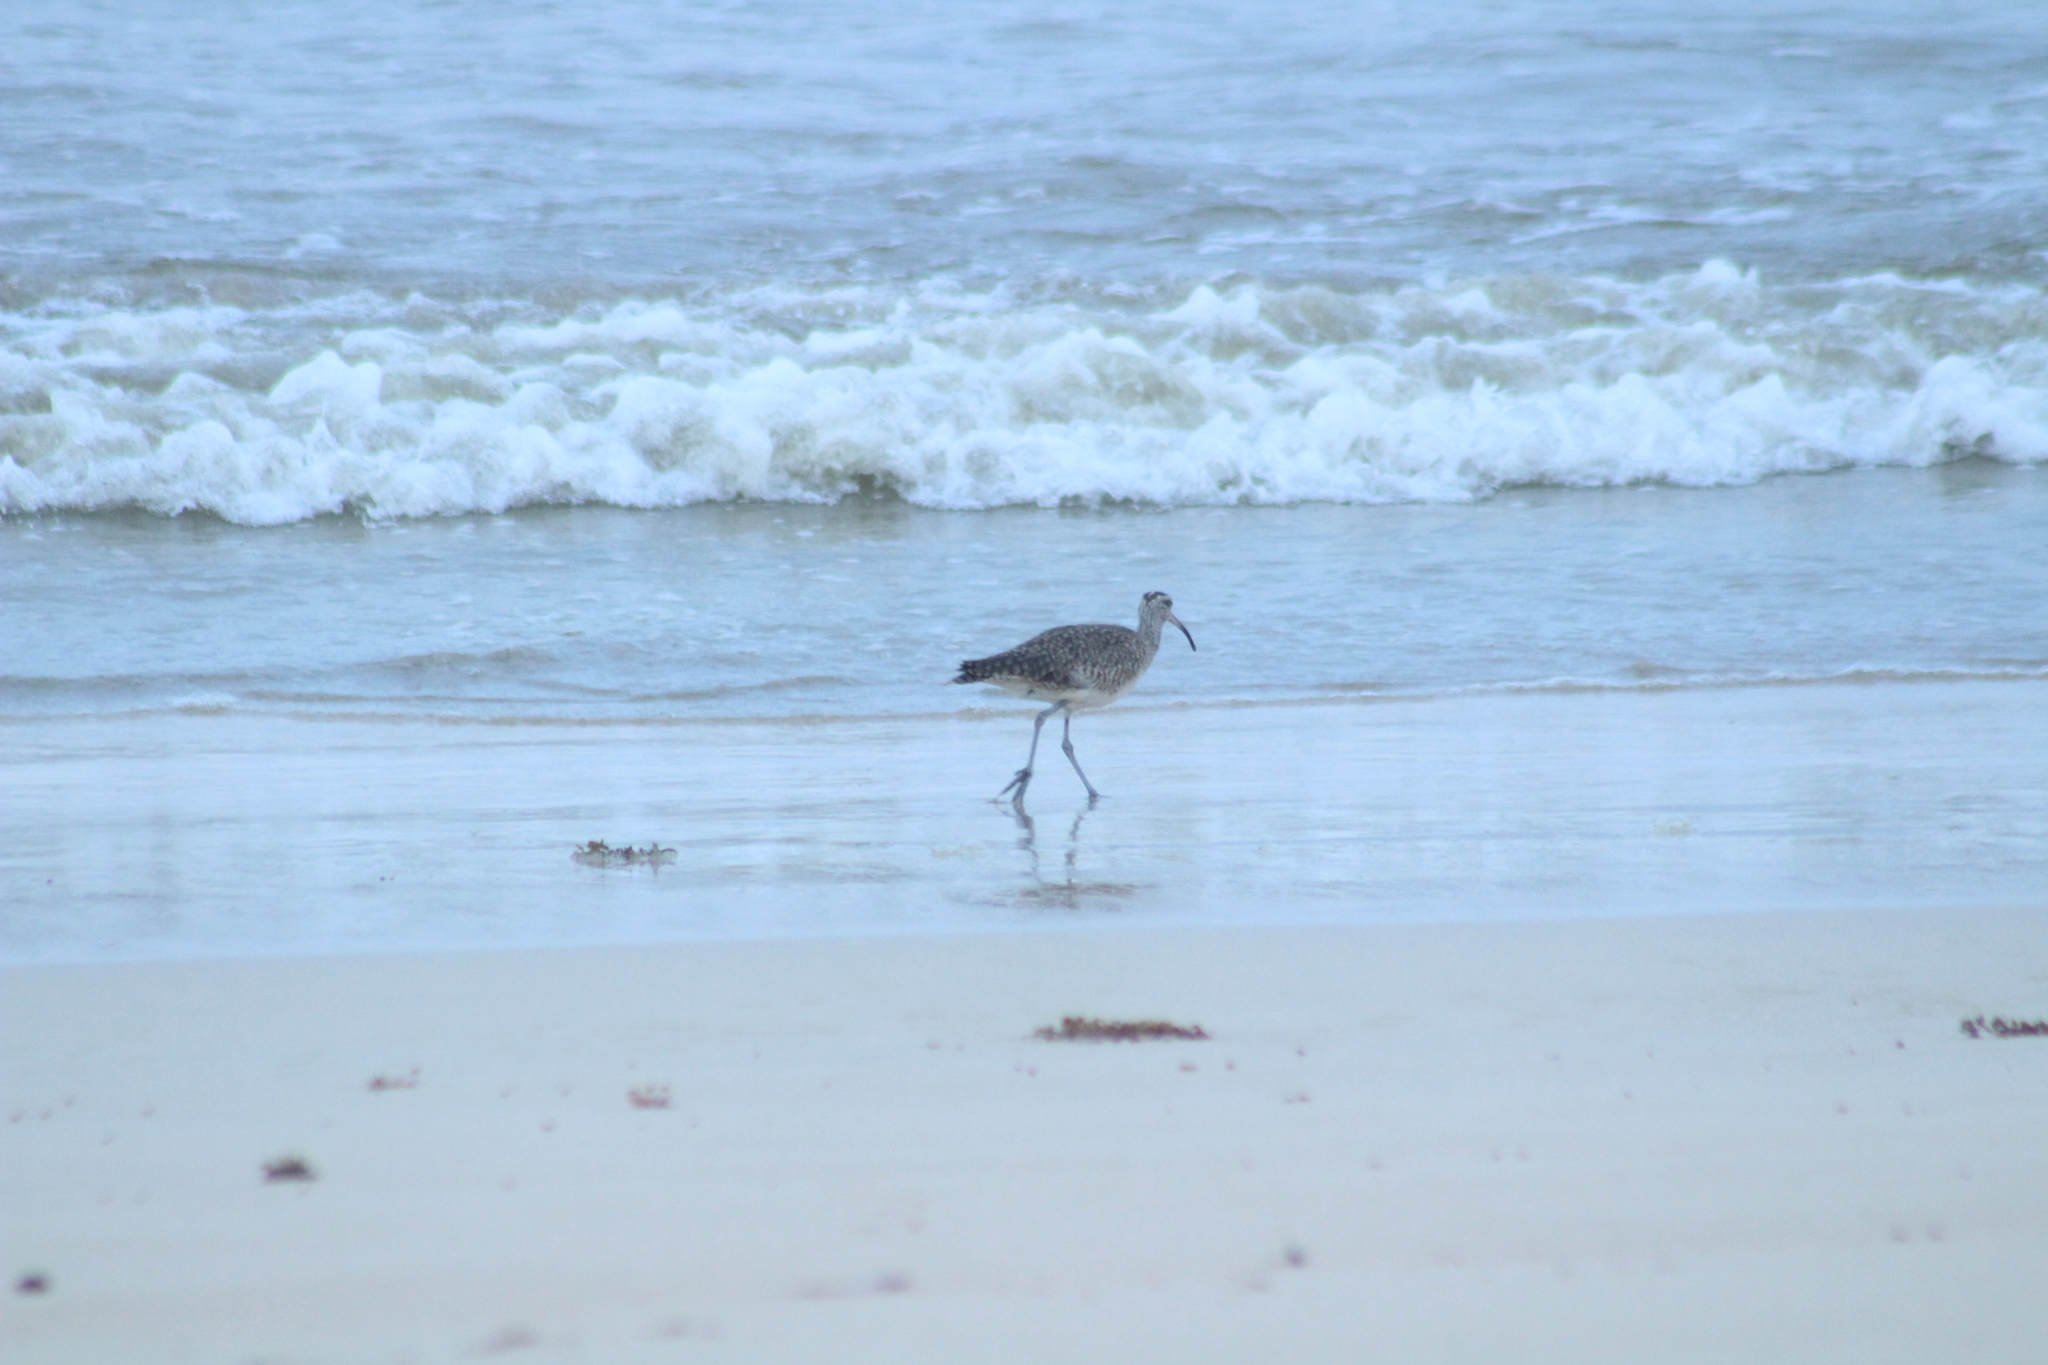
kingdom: Animalia
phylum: Chordata
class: Aves
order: Charadriiformes
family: Scolopacidae
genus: Numenius
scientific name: Numenius phaeopus
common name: Whimbrel
